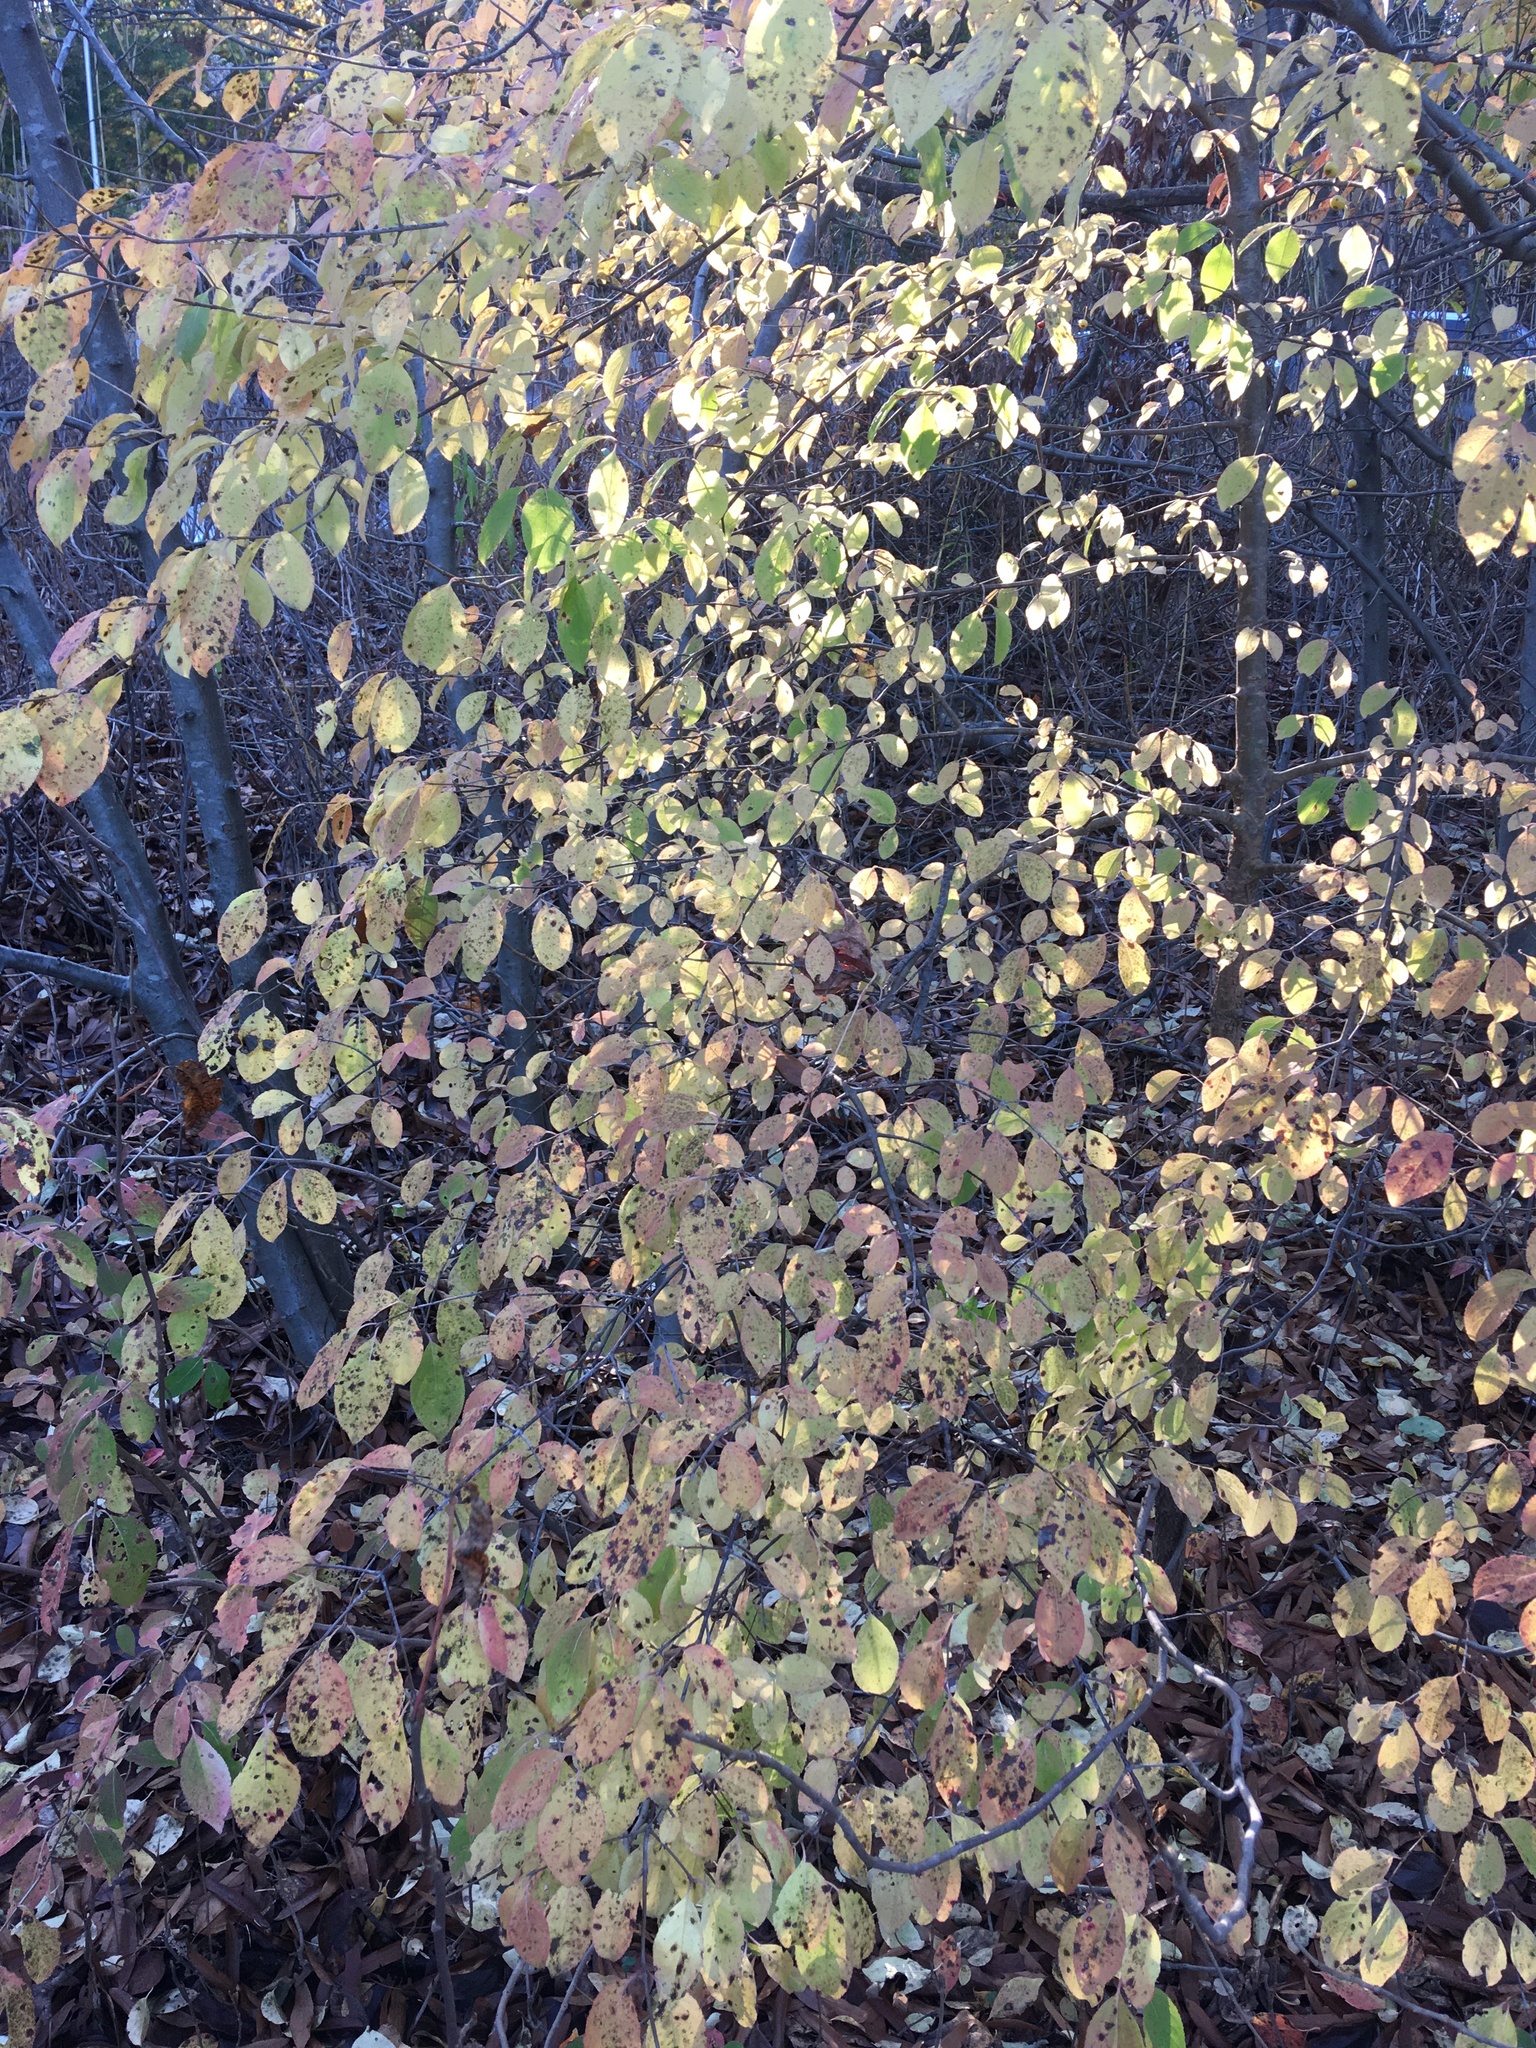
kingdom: Plantae
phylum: Tracheophyta
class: Magnoliopsida
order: Dipsacales
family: Viburnaceae
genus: Viburnum
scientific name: Viburnum prunifolium
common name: Black haw
